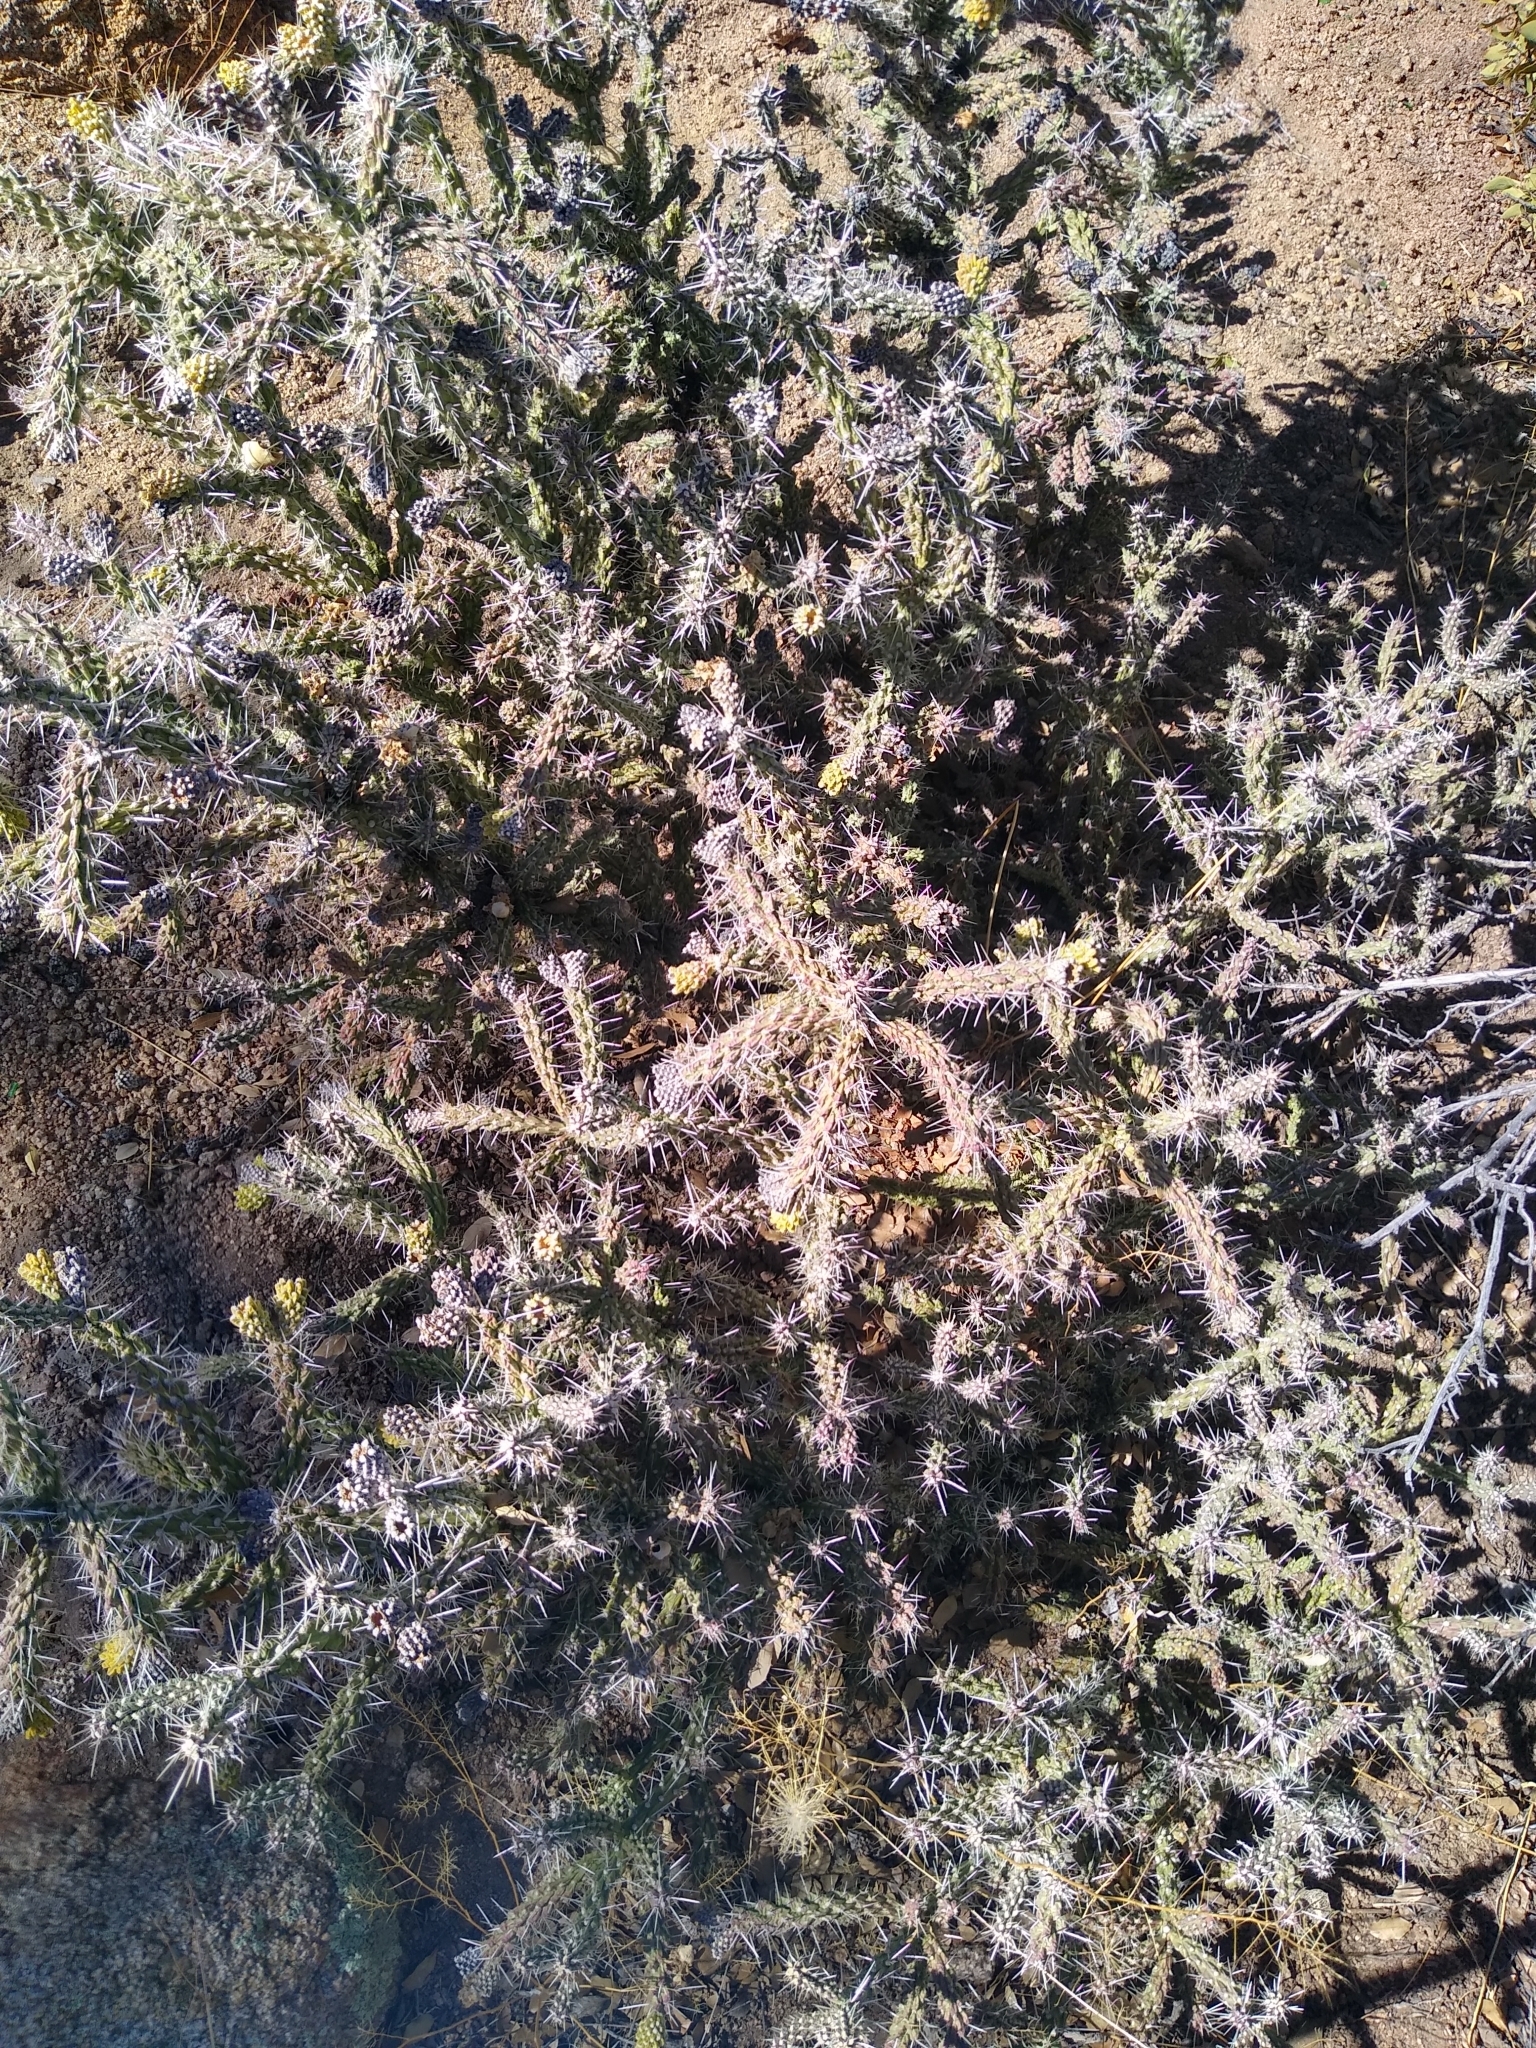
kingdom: Plantae
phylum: Tracheophyta
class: Magnoliopsida
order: Caryophyllales
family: Cactaceae
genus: Cylindropuntia
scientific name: Cylindropuntia whipplei
